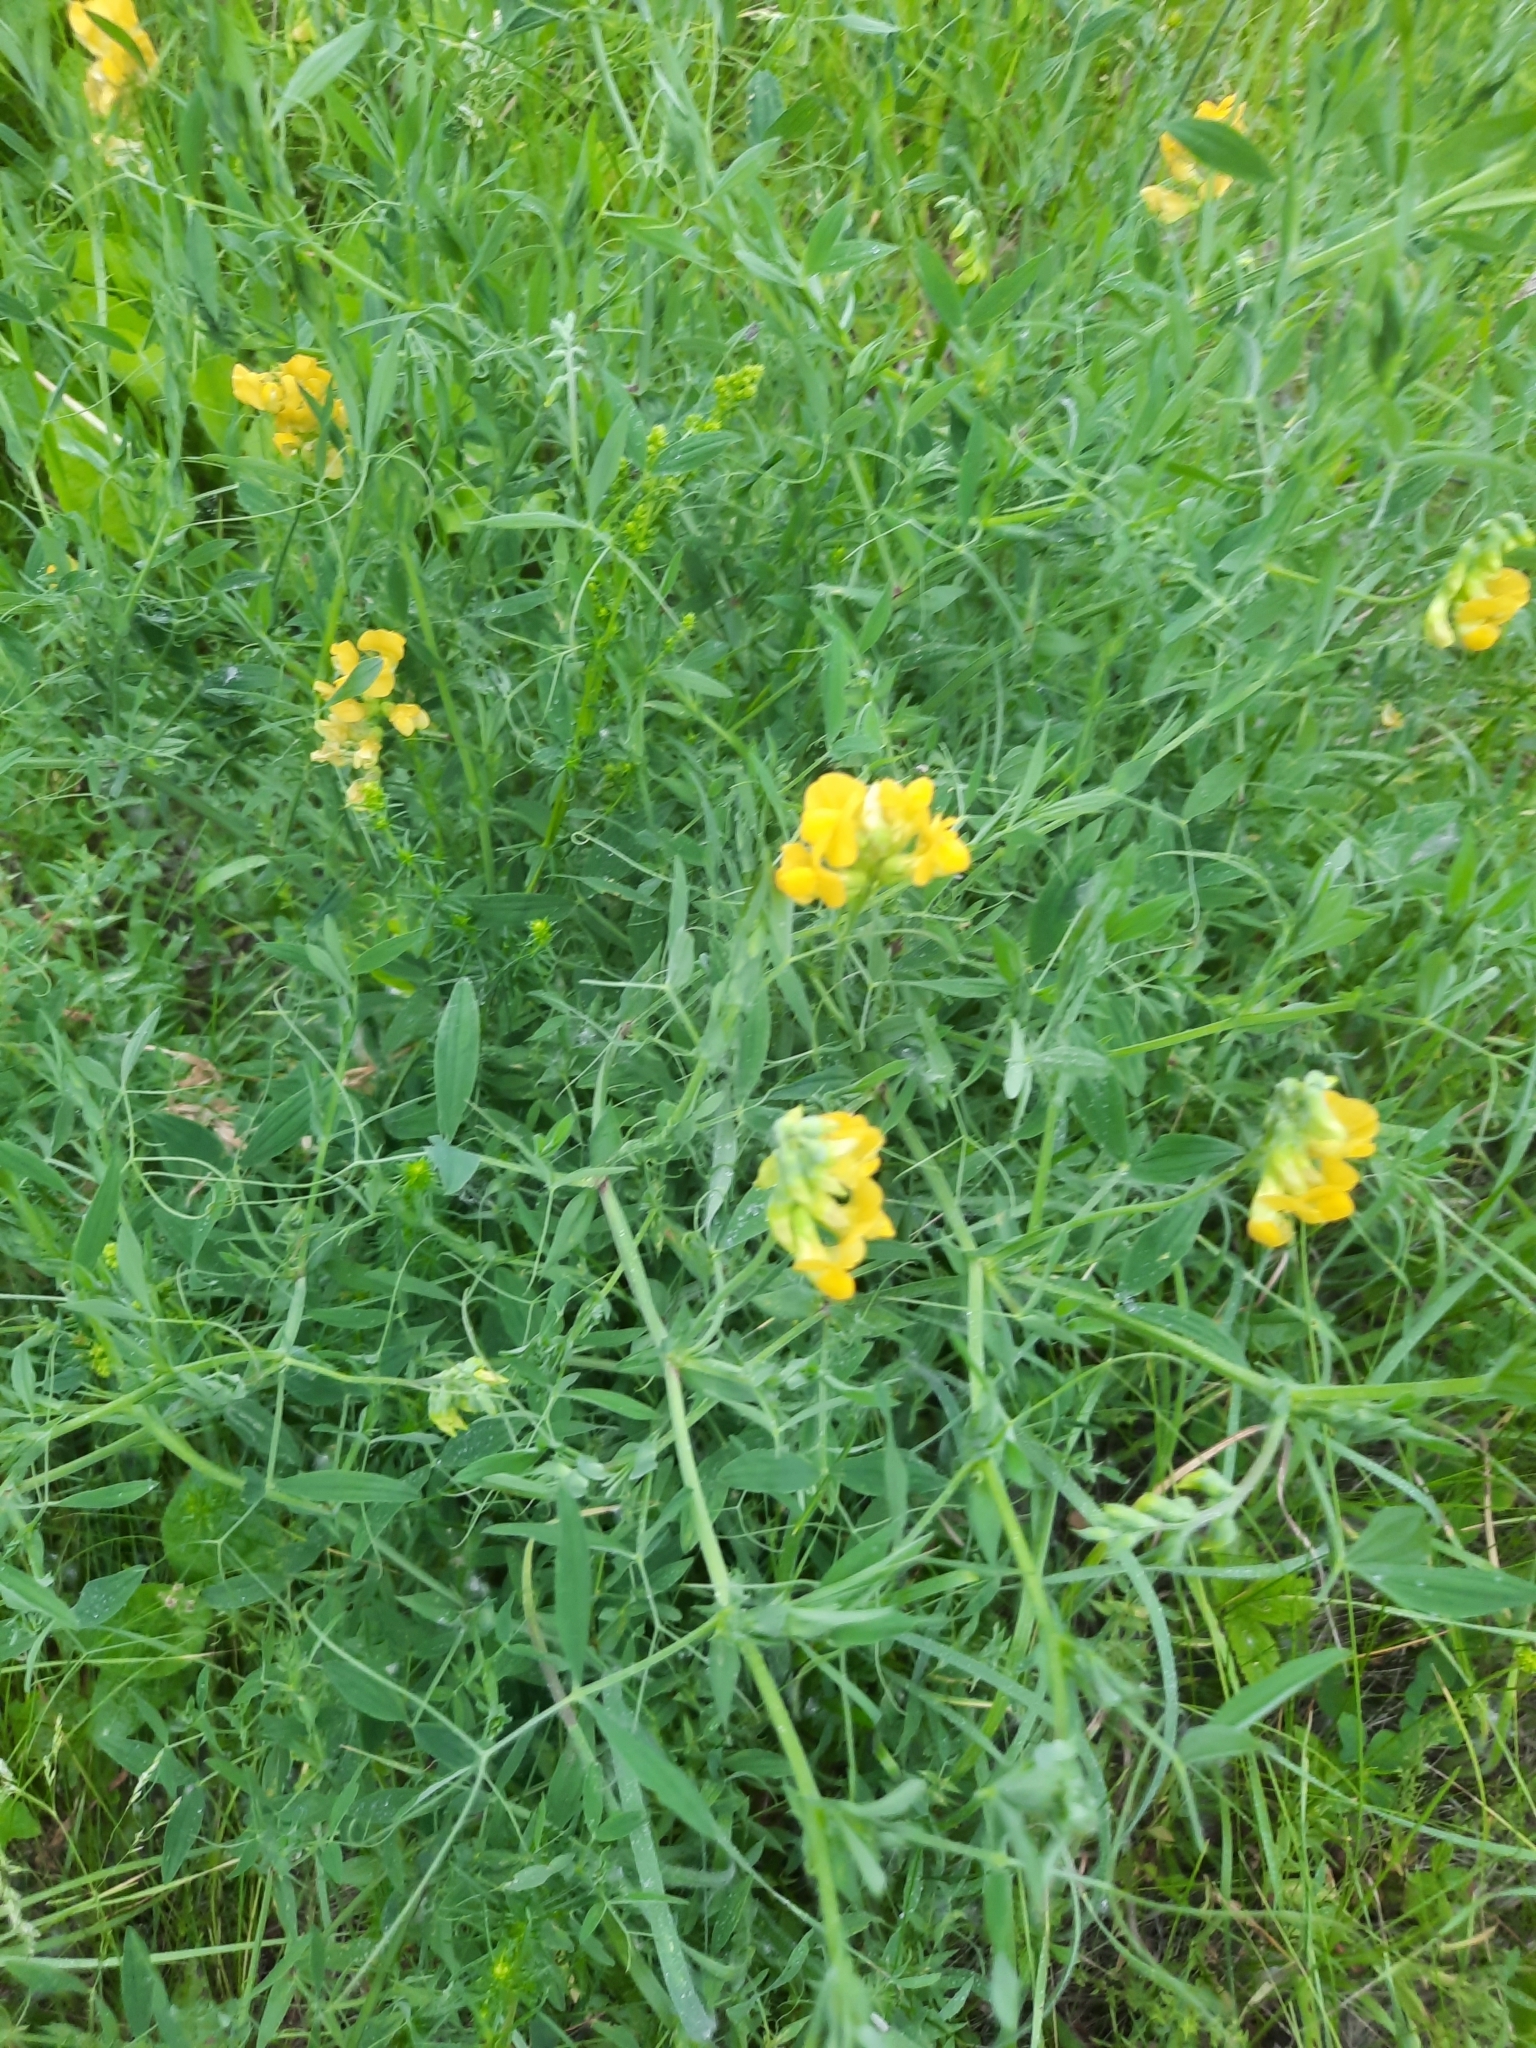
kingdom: Plantae
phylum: Tracheophyta
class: Magnoliopsida
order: Fabales
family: Fabaceae
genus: Lathyrus
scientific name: Lathyrus pratensis
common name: Meadow vetchling
